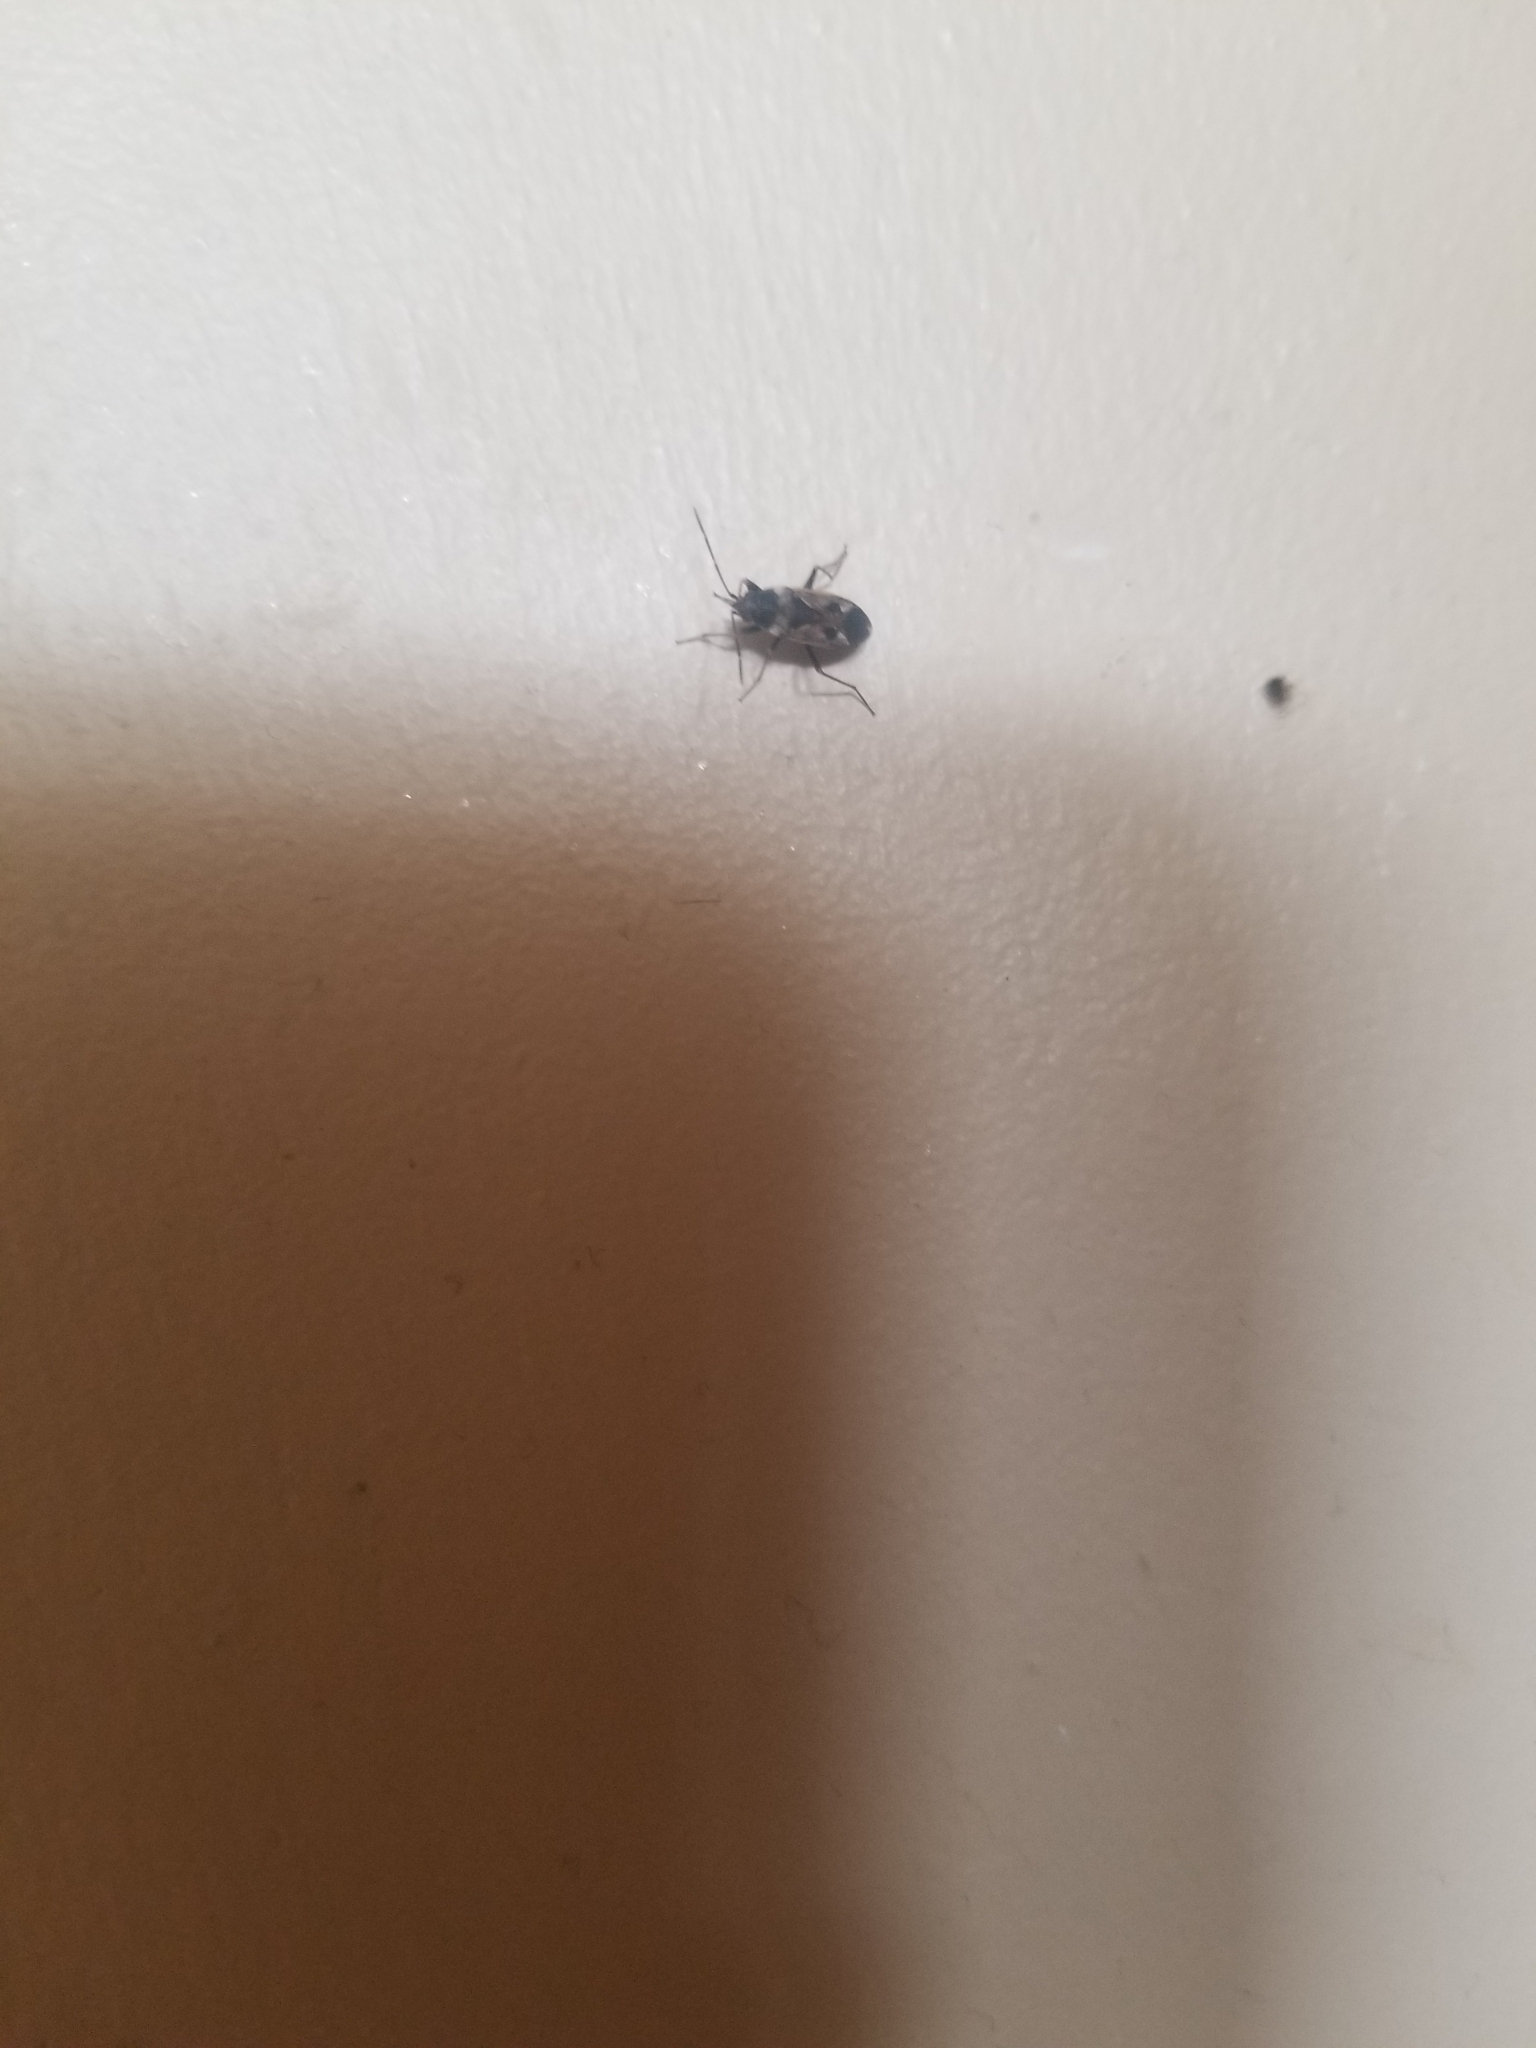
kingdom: Animalia
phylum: Arthropoda
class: Insecta
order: Hemiptera
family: Rhyparochromidae
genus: Rhyparochromus
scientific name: Rhyparochromus vulgaris
